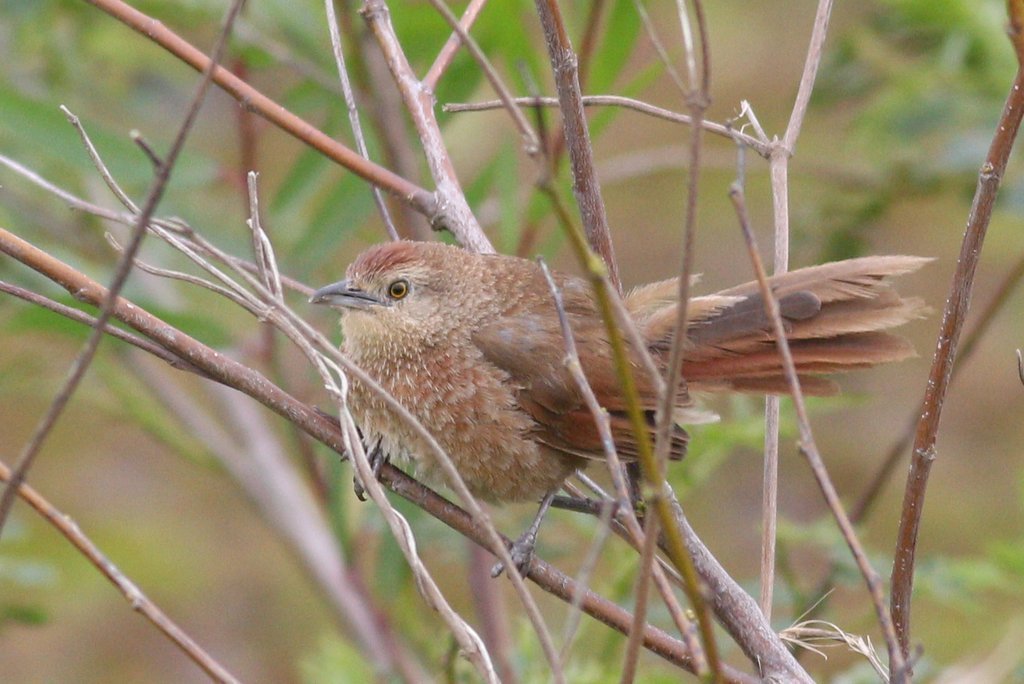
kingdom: Animalia
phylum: Chordata
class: Aves
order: Passeriformes
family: Furnariidae
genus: Phacellodomus
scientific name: Phacellodomus striaticollis
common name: Freckle-breasted thornbird
